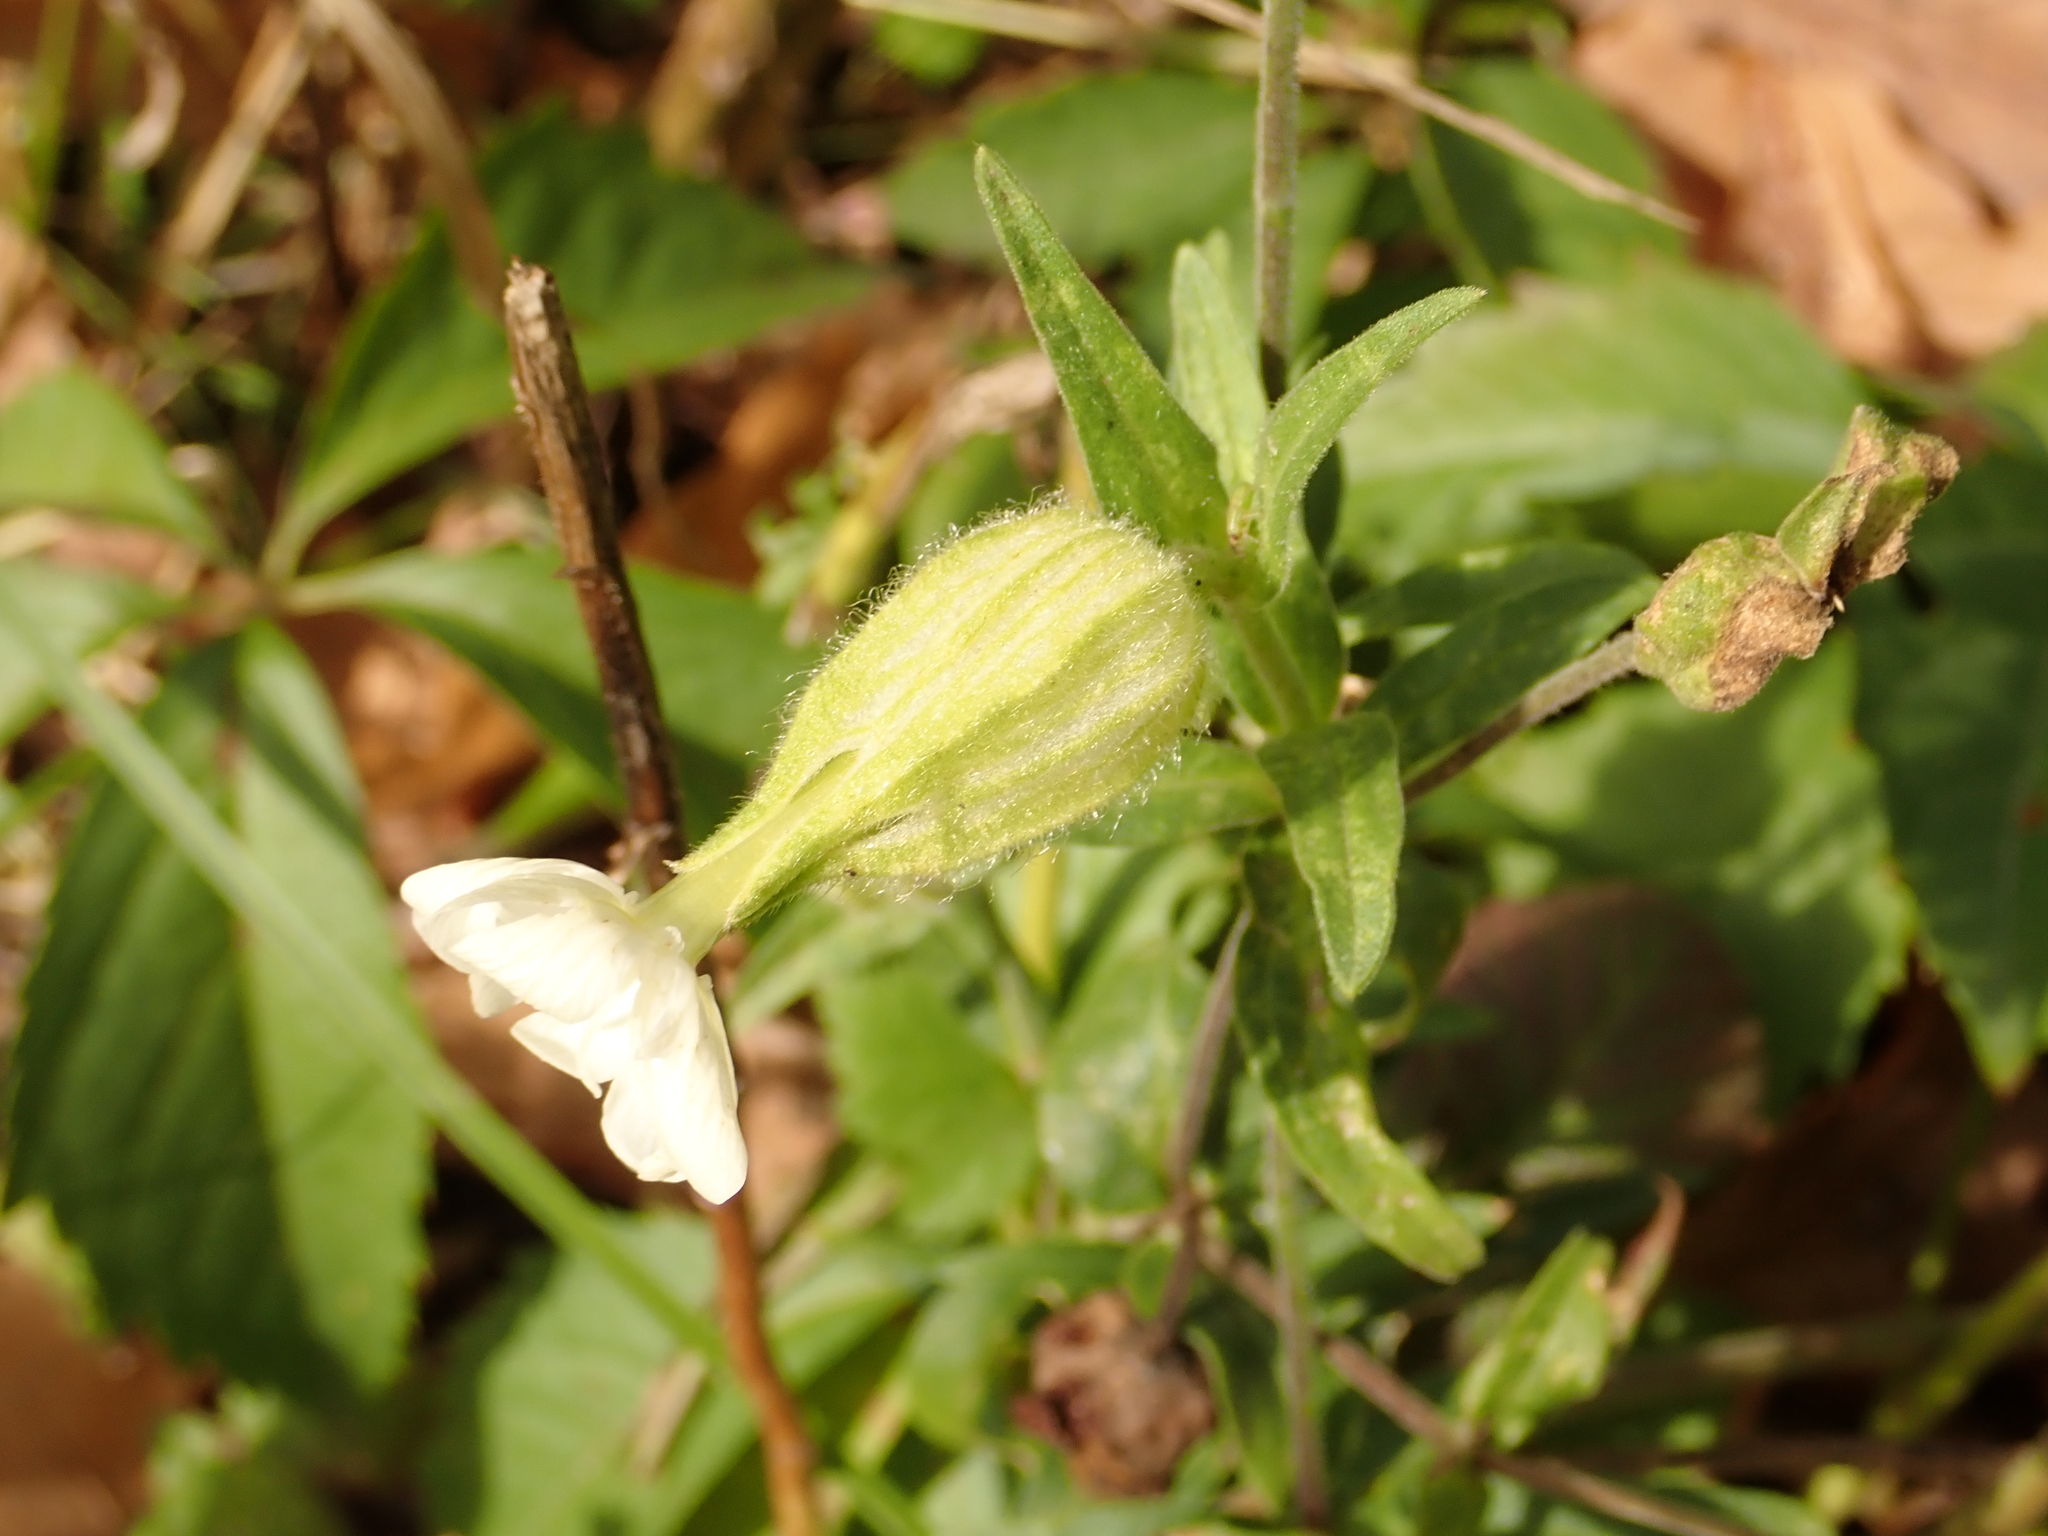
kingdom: Plantae
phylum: Tracheophyta
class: Magnoliopsida
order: Caryophyllales
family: Caryophyllaceae
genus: Silene
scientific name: Silene latifolia
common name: White campion
